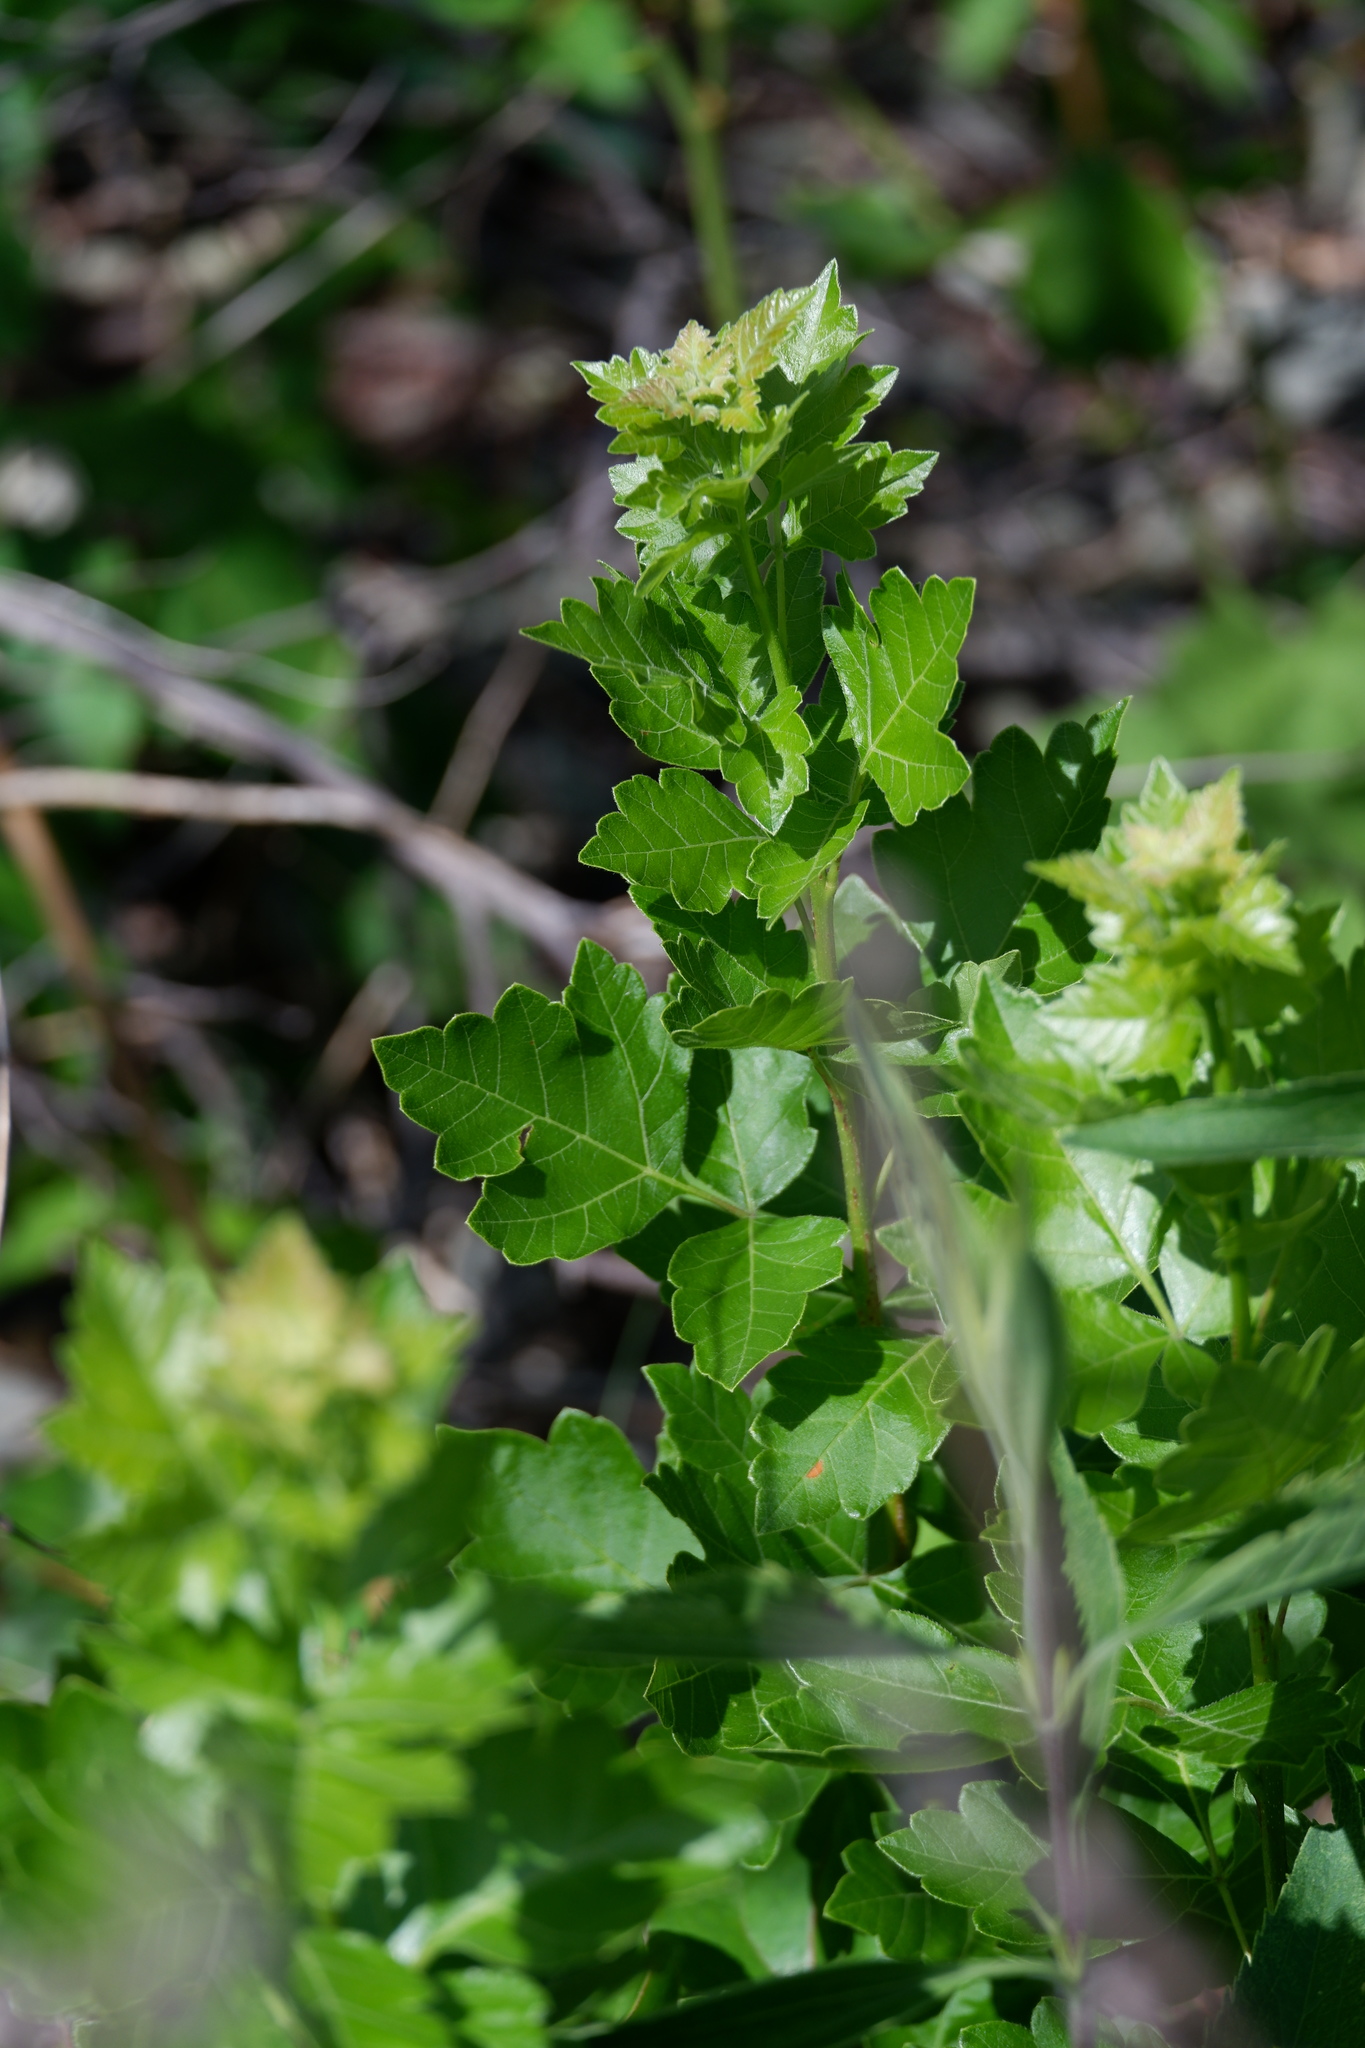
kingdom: Plantae
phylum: Tracheophyta
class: Magnoliopsida
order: Sapindales
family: Anacardiaceae
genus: Rhus
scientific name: Rhus aromatica
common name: Aromatic sumac
